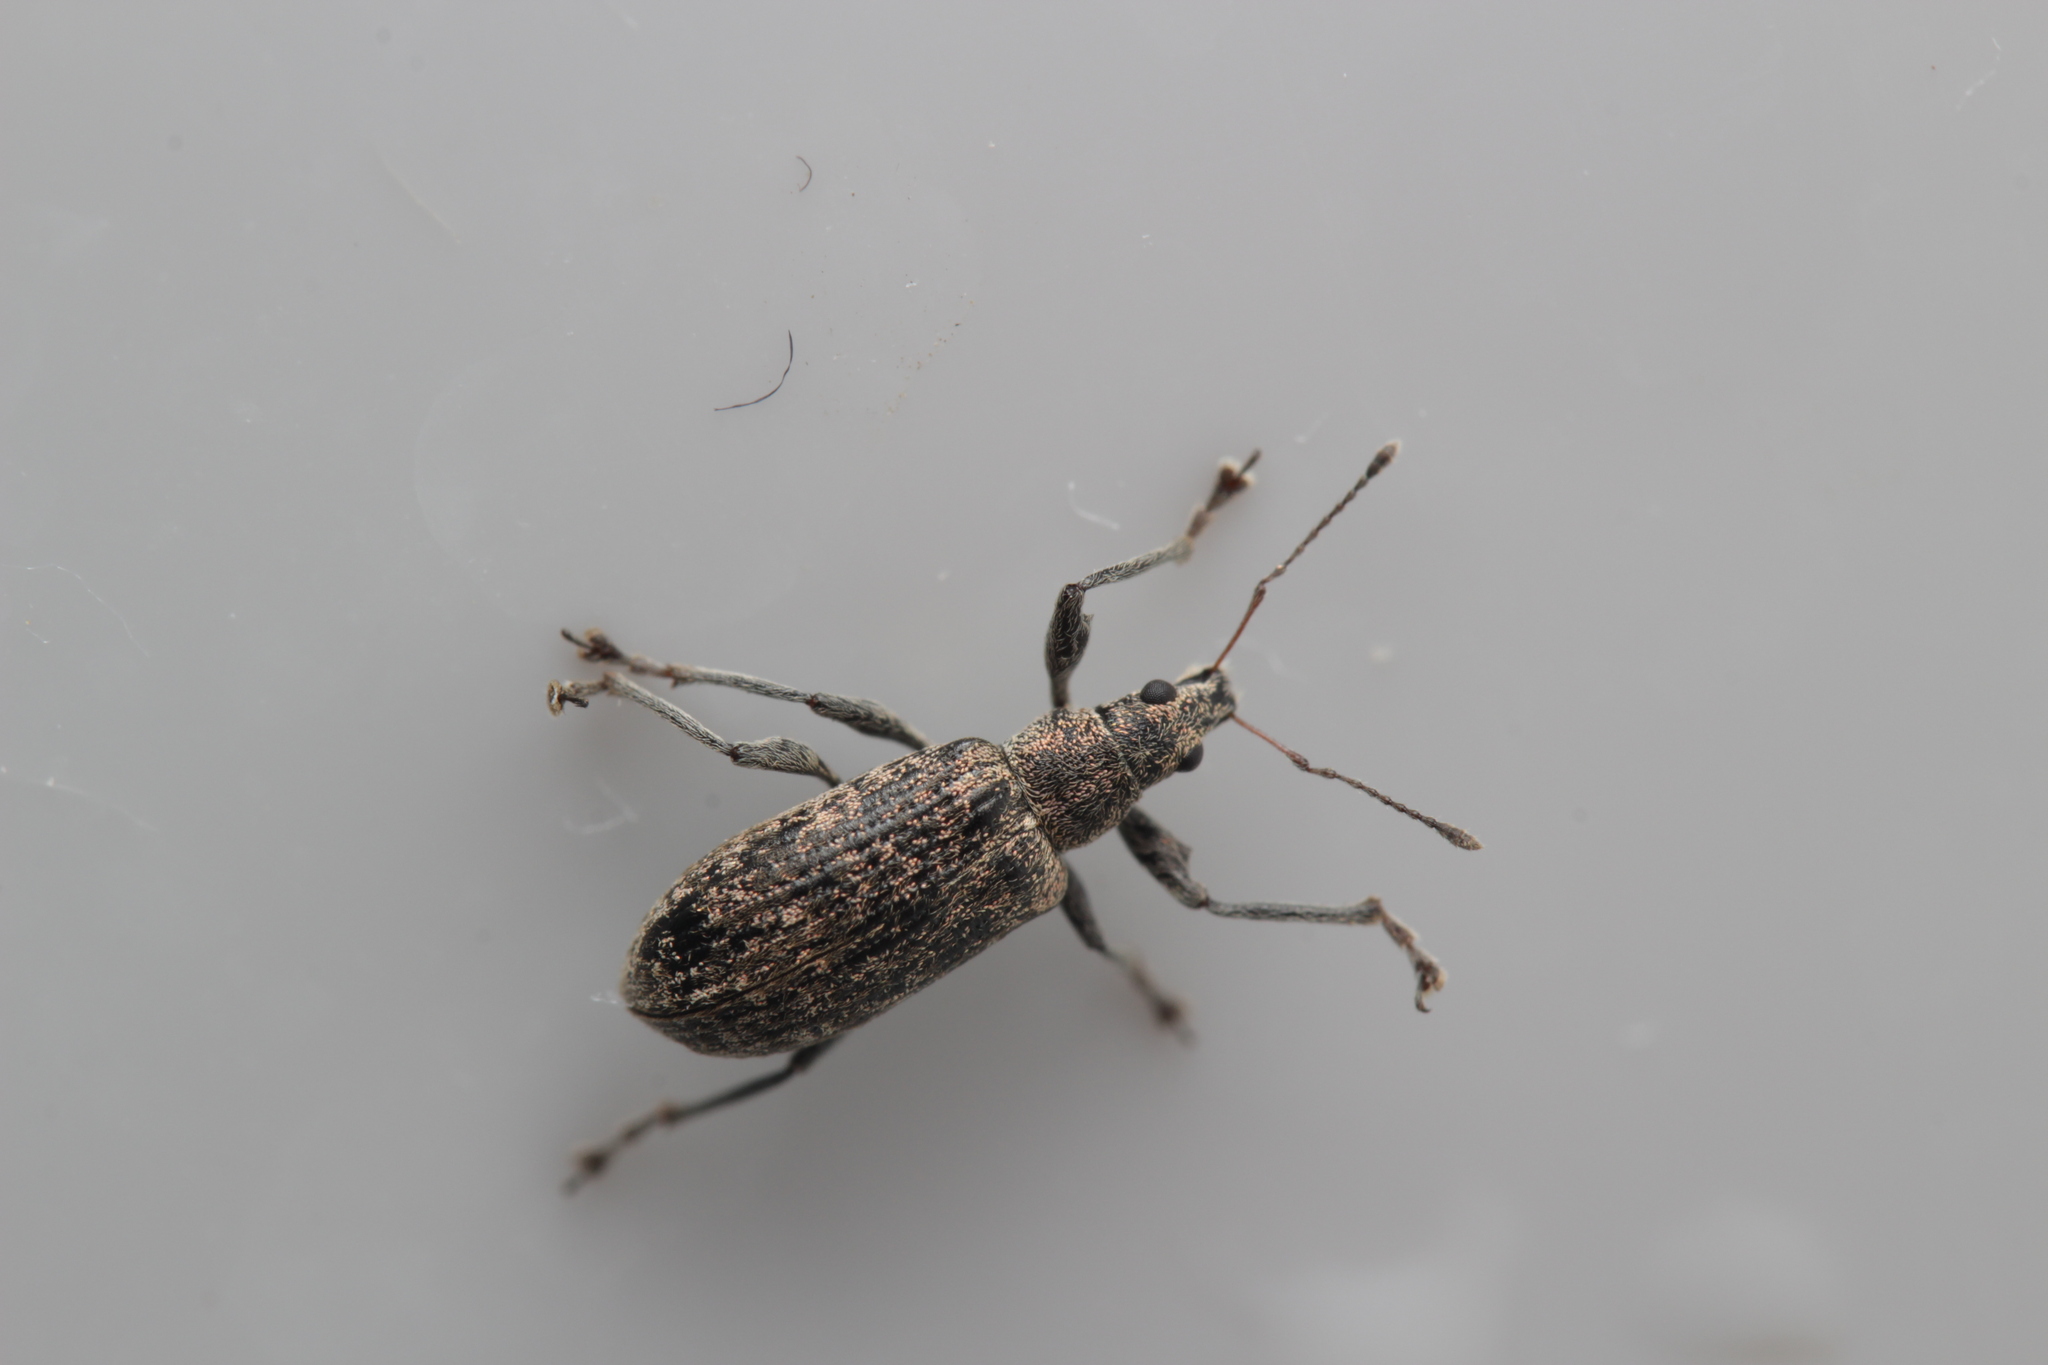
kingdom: Animalia
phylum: Arthropoda
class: Insecta
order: Coleoptera
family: Curculionidae
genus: Polydrusus
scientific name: Polydrusus pilosus
